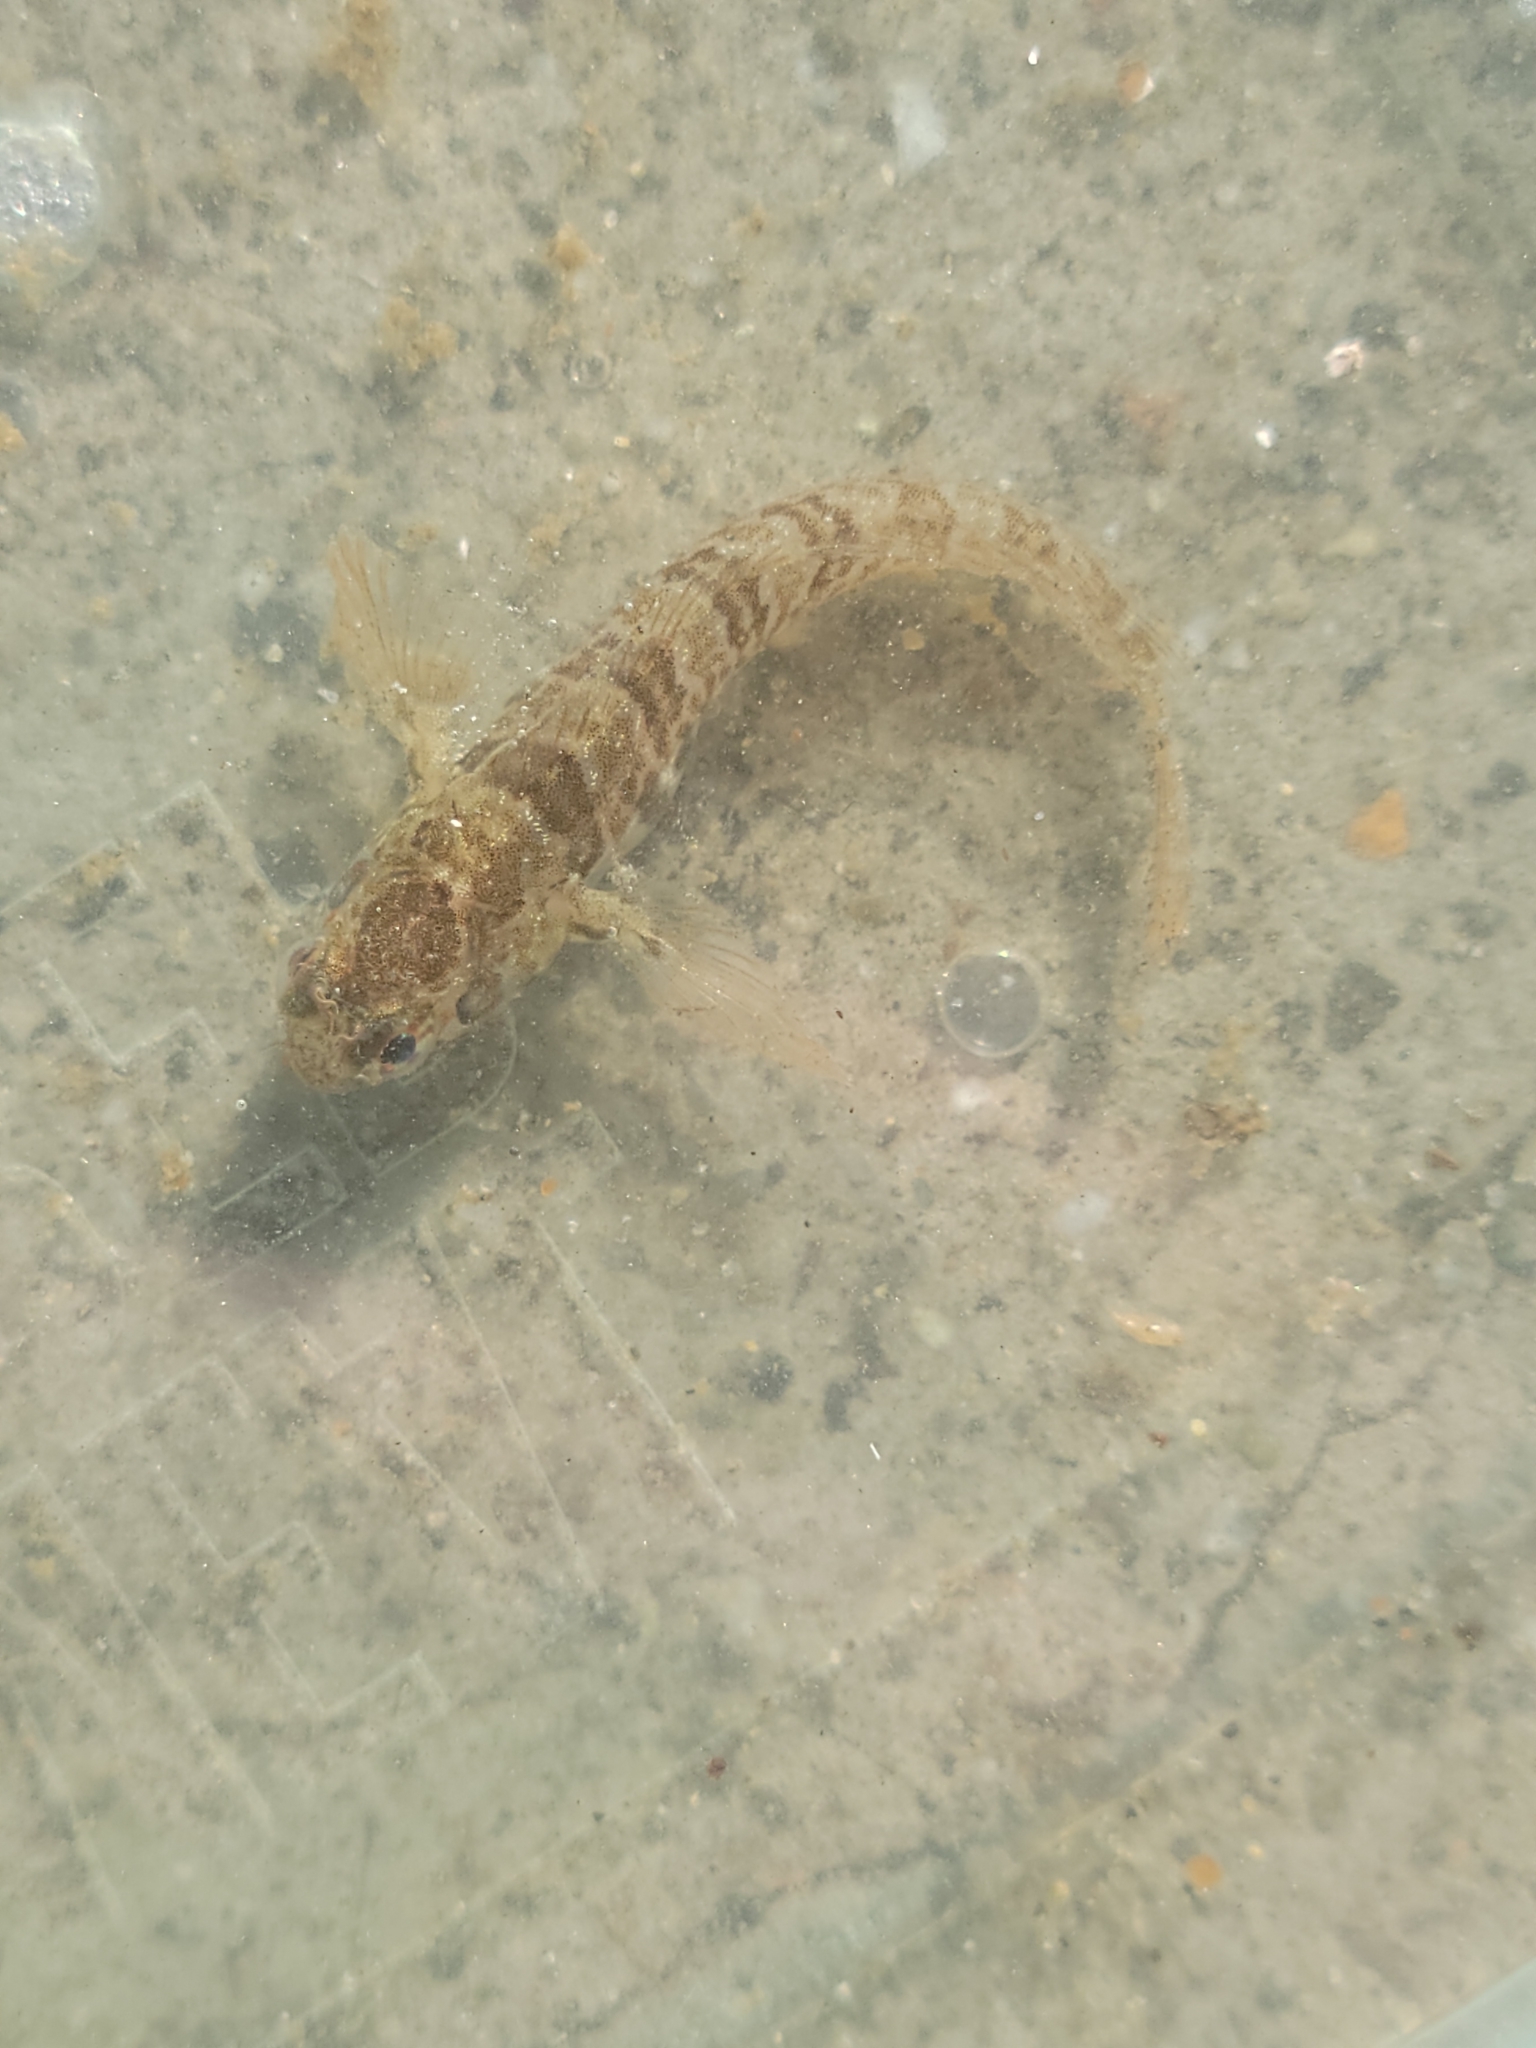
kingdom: Animalia
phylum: Chordata
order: Perciformes
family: Blenniidae
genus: Hypsoblennius
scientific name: Hypsoblennius jenkinsi
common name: Mussel blenny
